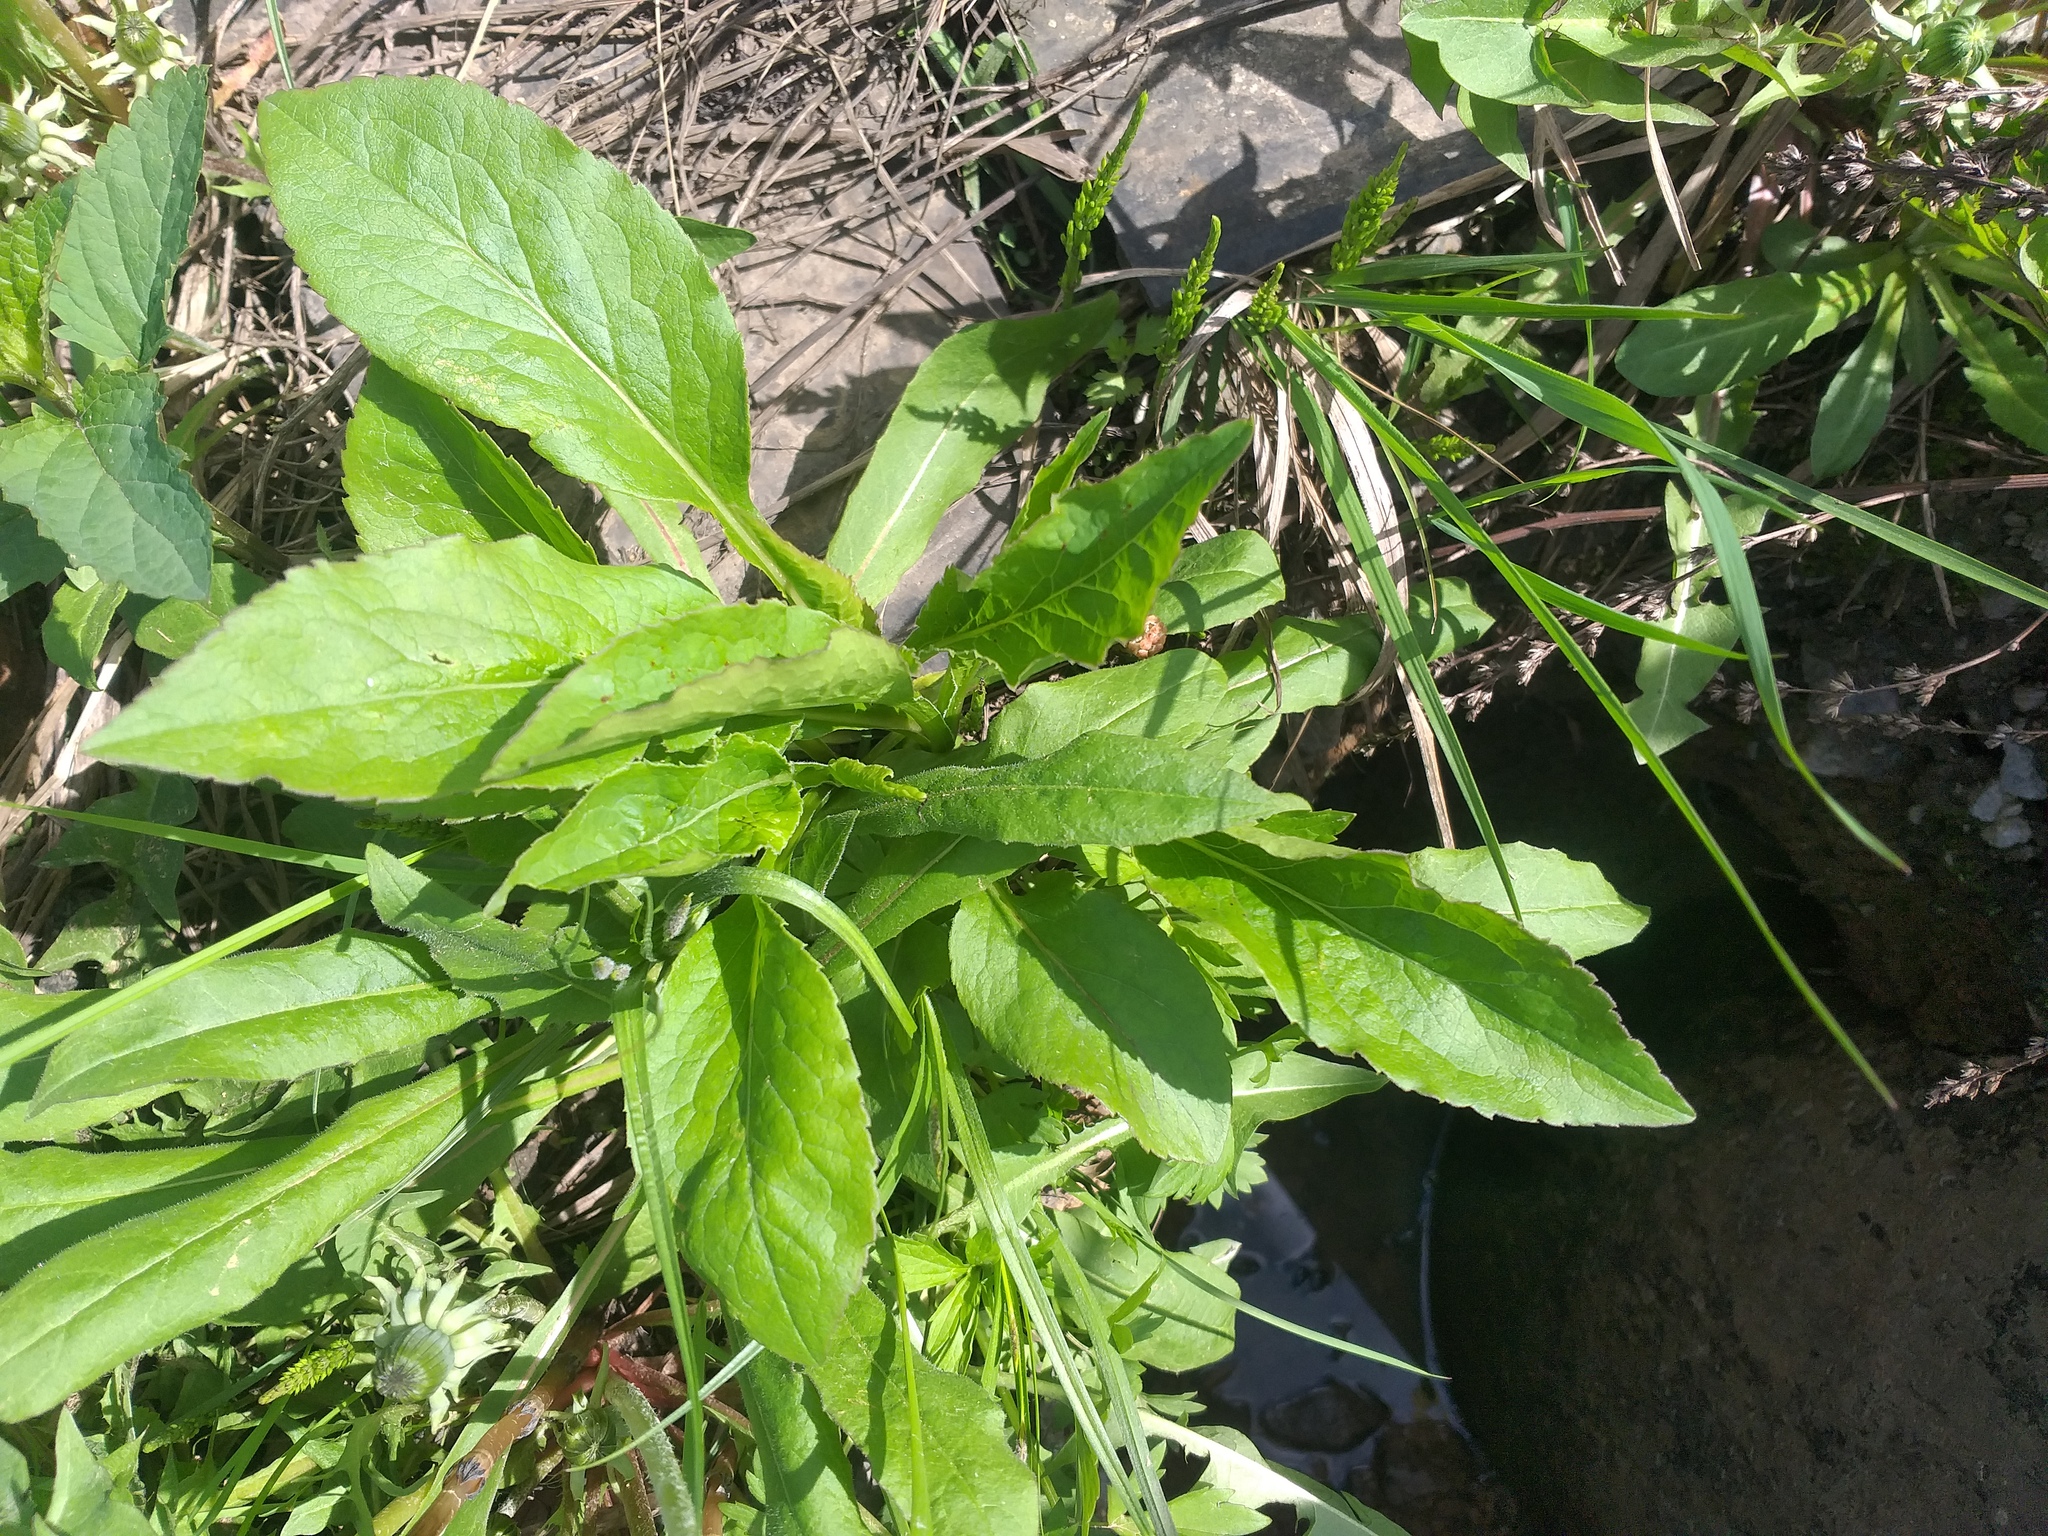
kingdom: Plantae
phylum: Tracheophyta
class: Magnoliopsida
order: Asterales
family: Asteraceae
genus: Solidago
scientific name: Solidago virgaurea
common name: Goldenrod
